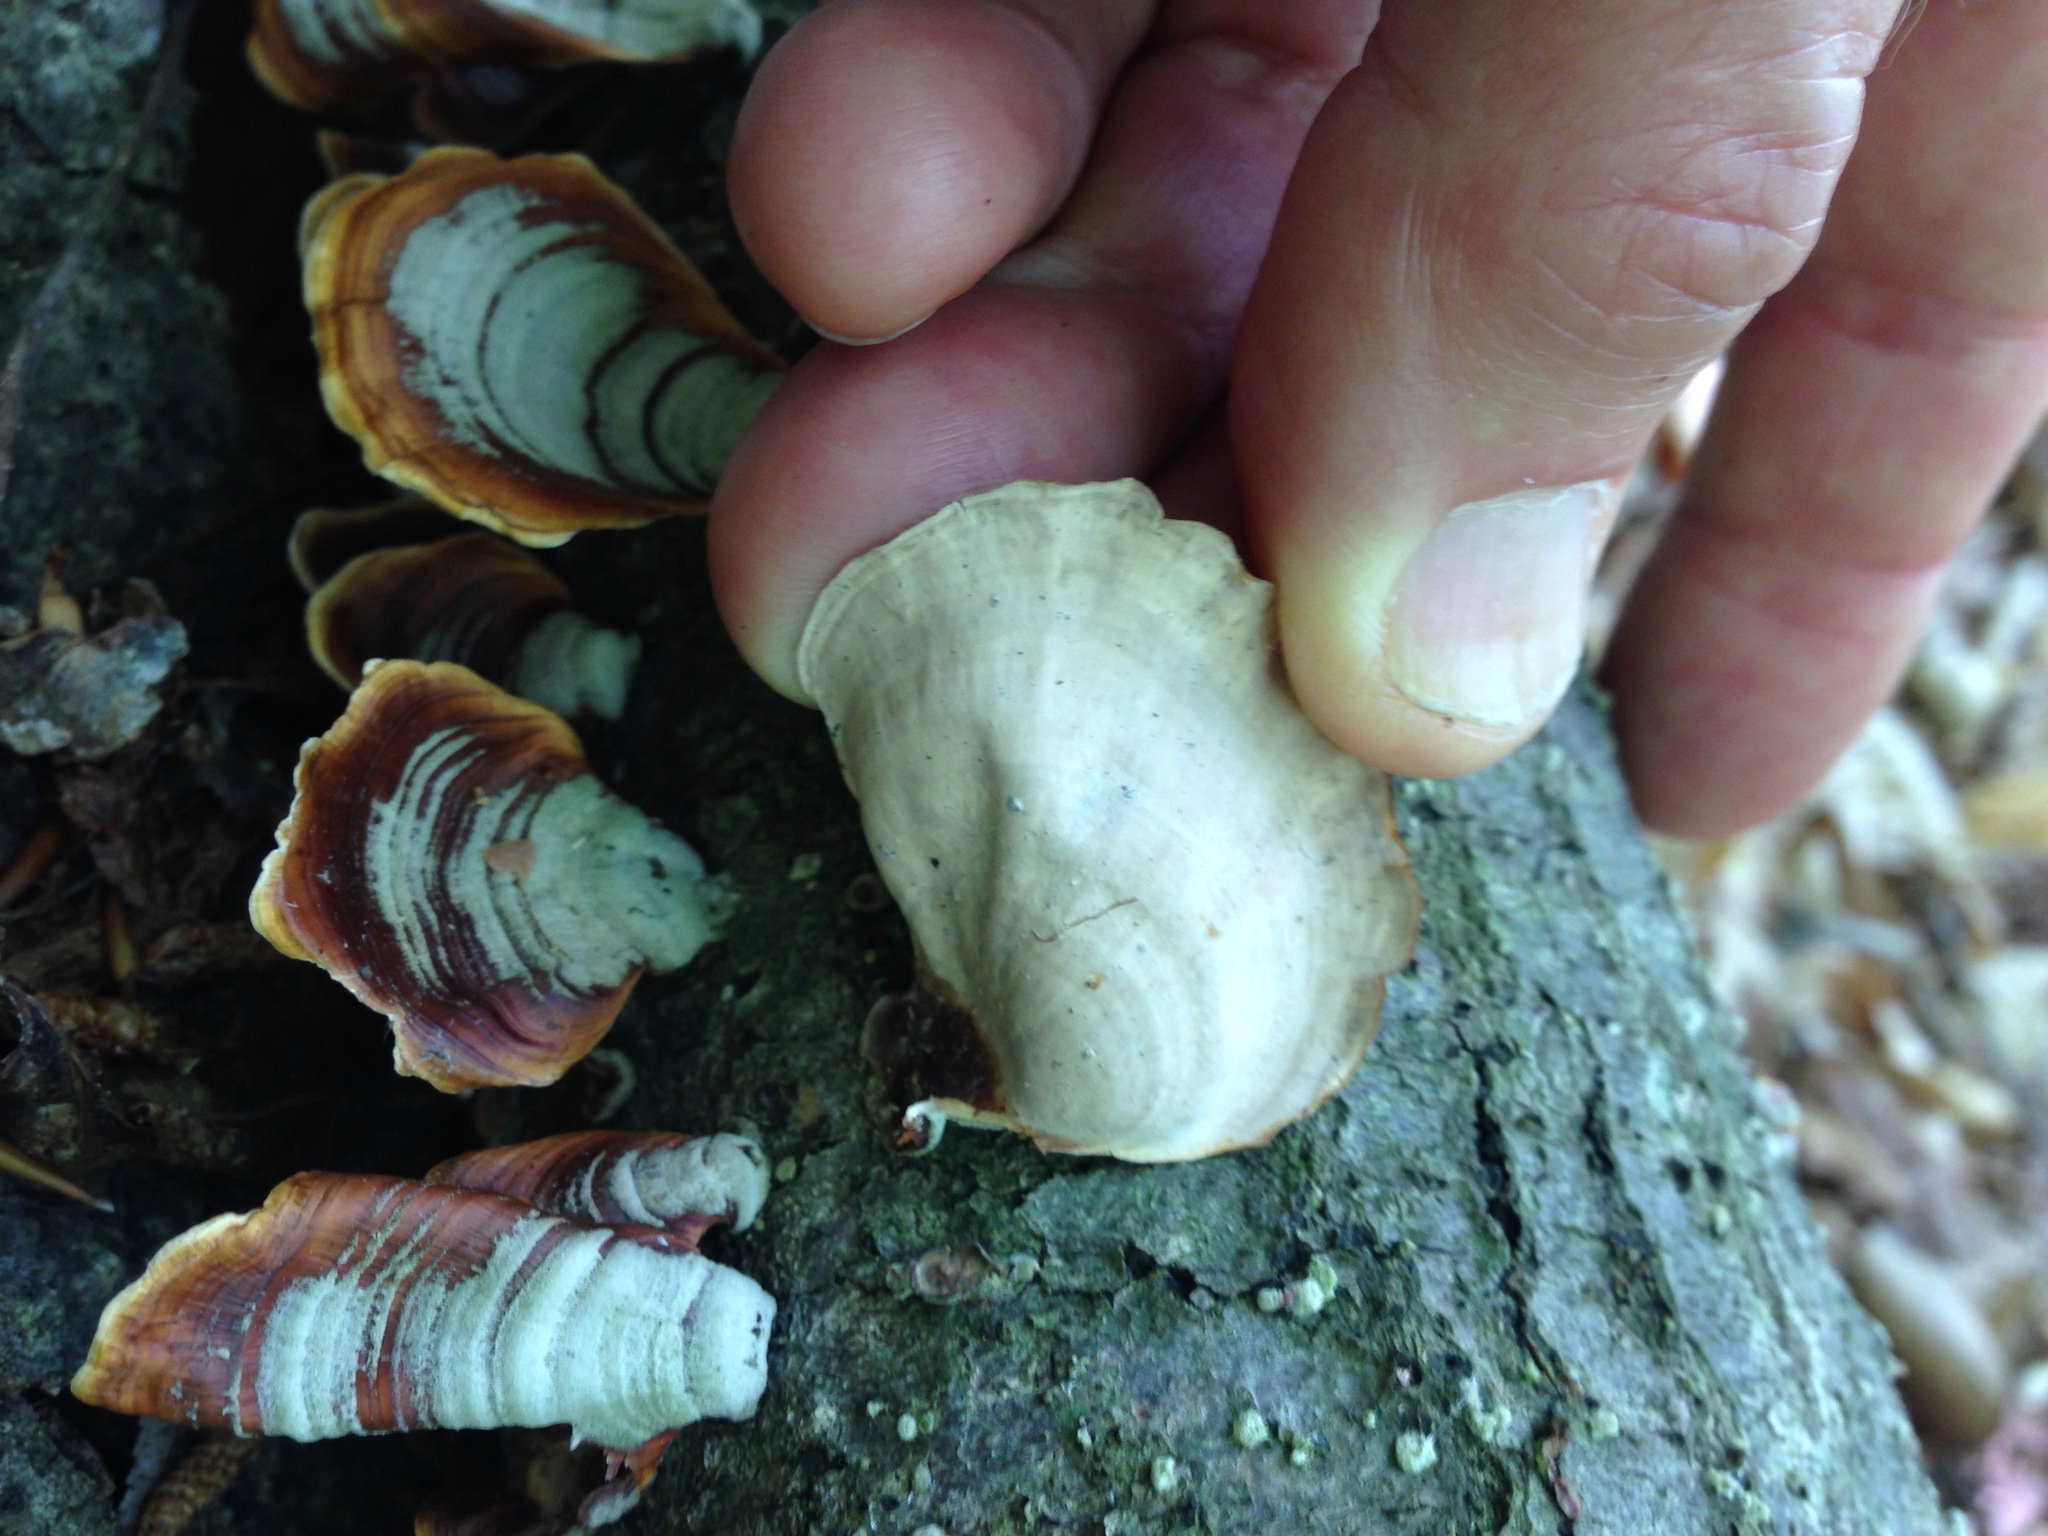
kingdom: Fungi
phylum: Basidiomycota
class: Agaricomycetes
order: Russulales
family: Stereaceae
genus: Stereum
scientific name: Stereum ostrea
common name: False turkeytail
